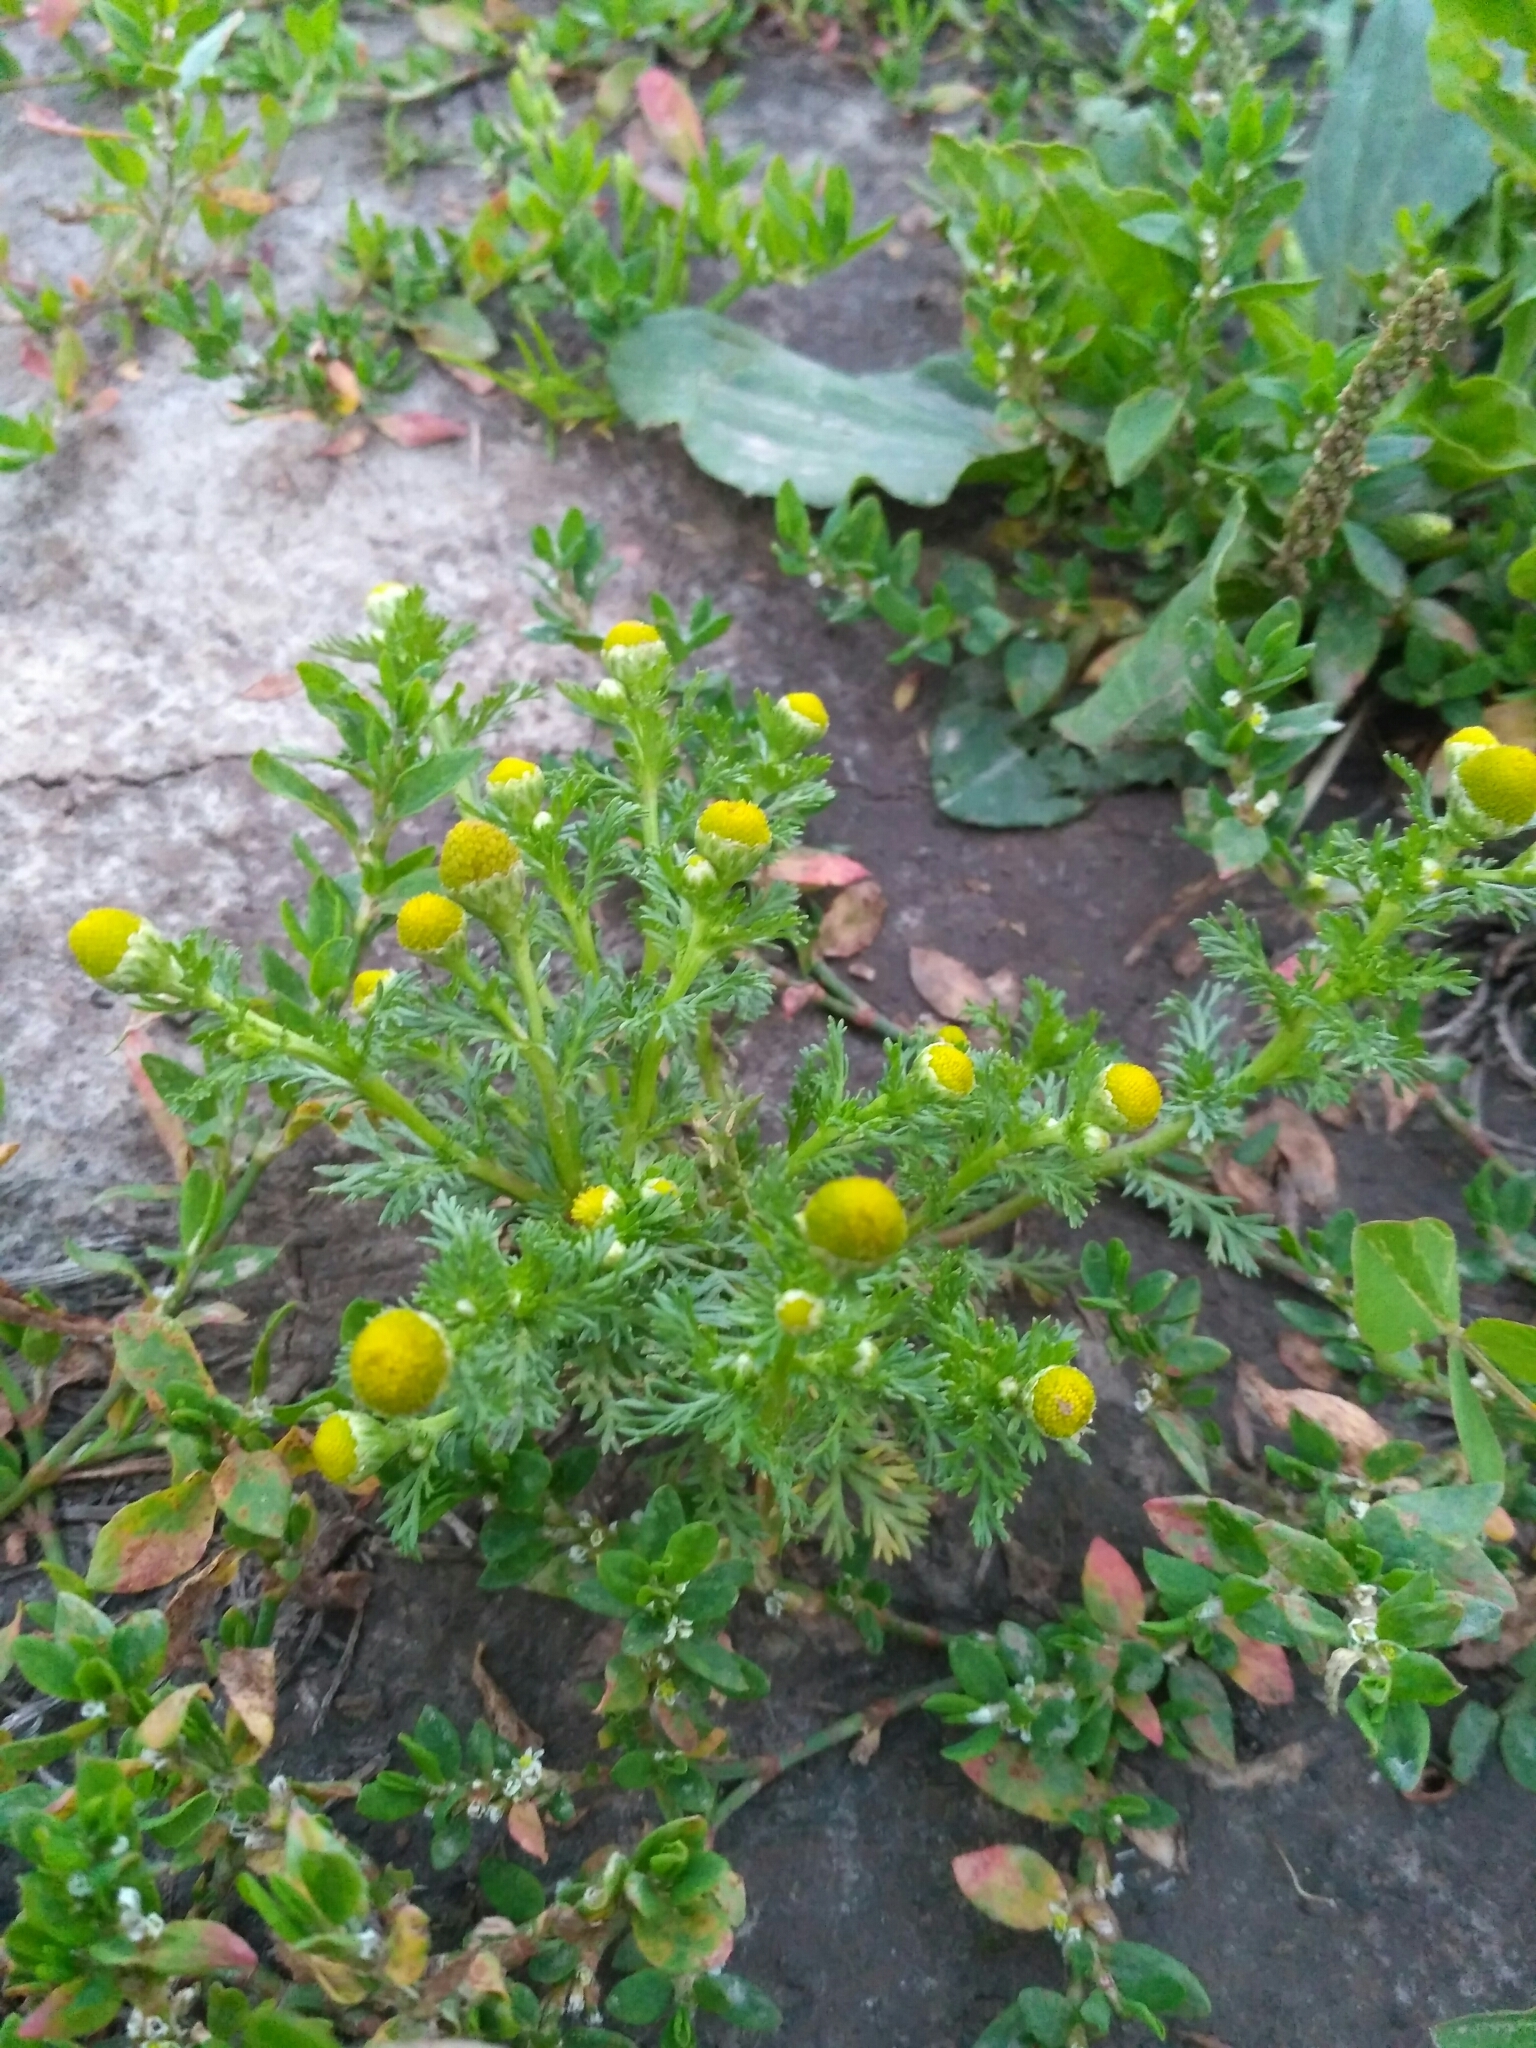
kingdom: Plantae
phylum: Tracheophyta
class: Magnoliopsida
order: Asterales
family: Asteraceae
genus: Matricaria
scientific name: Matricaria discoidea
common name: Disc mayweed
